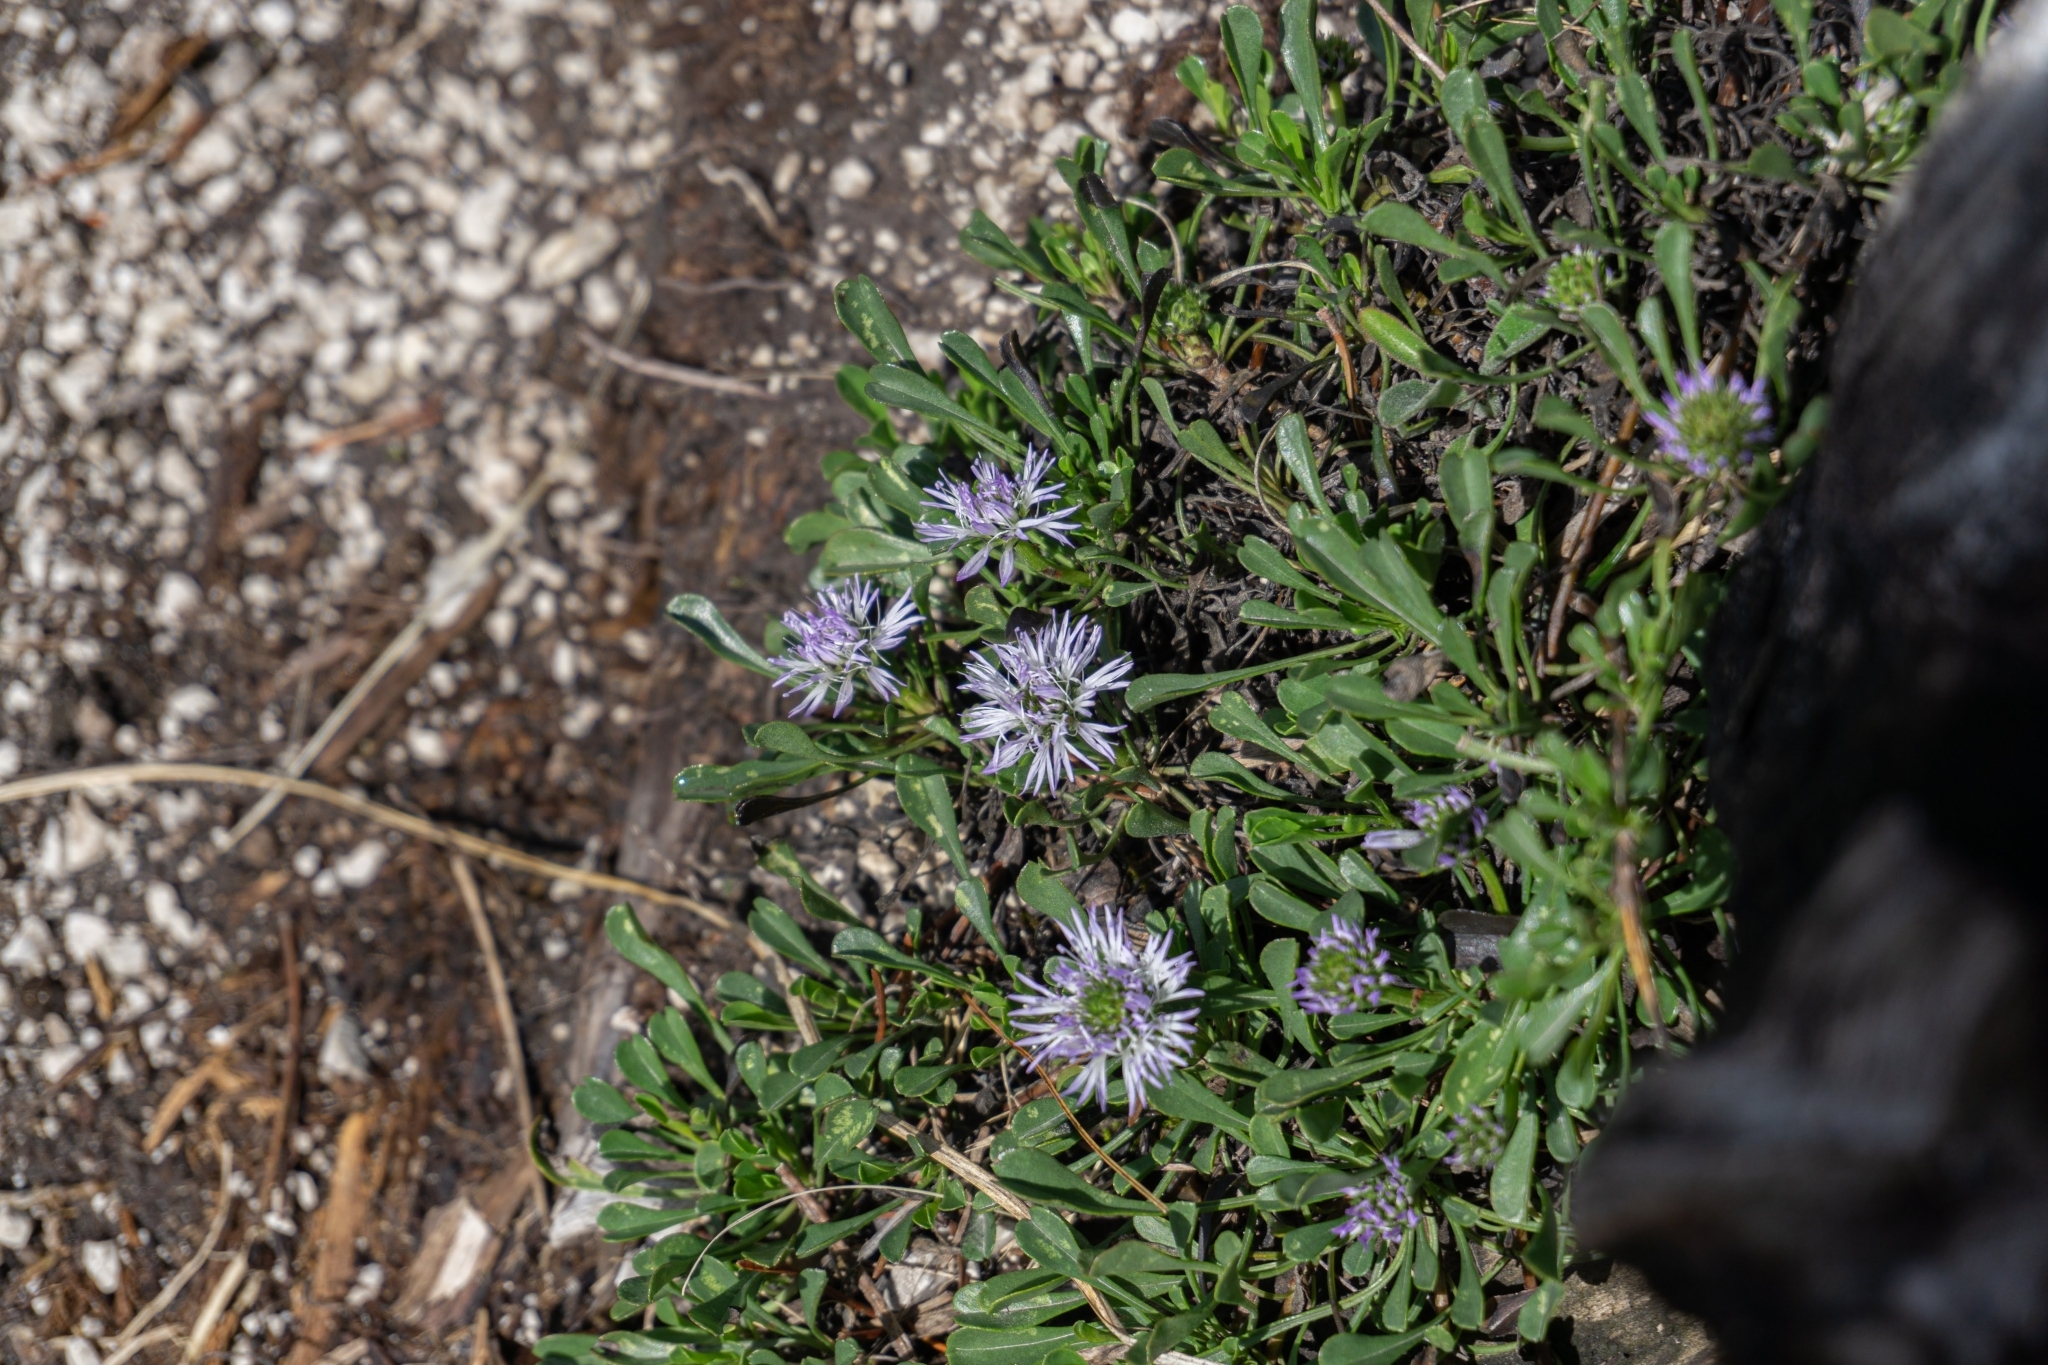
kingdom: Plantae
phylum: Tracheophyta
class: Magnoliopsida
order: Lamiales
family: Plantaginaceae
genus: Globularia
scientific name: Globularia cordifolia
